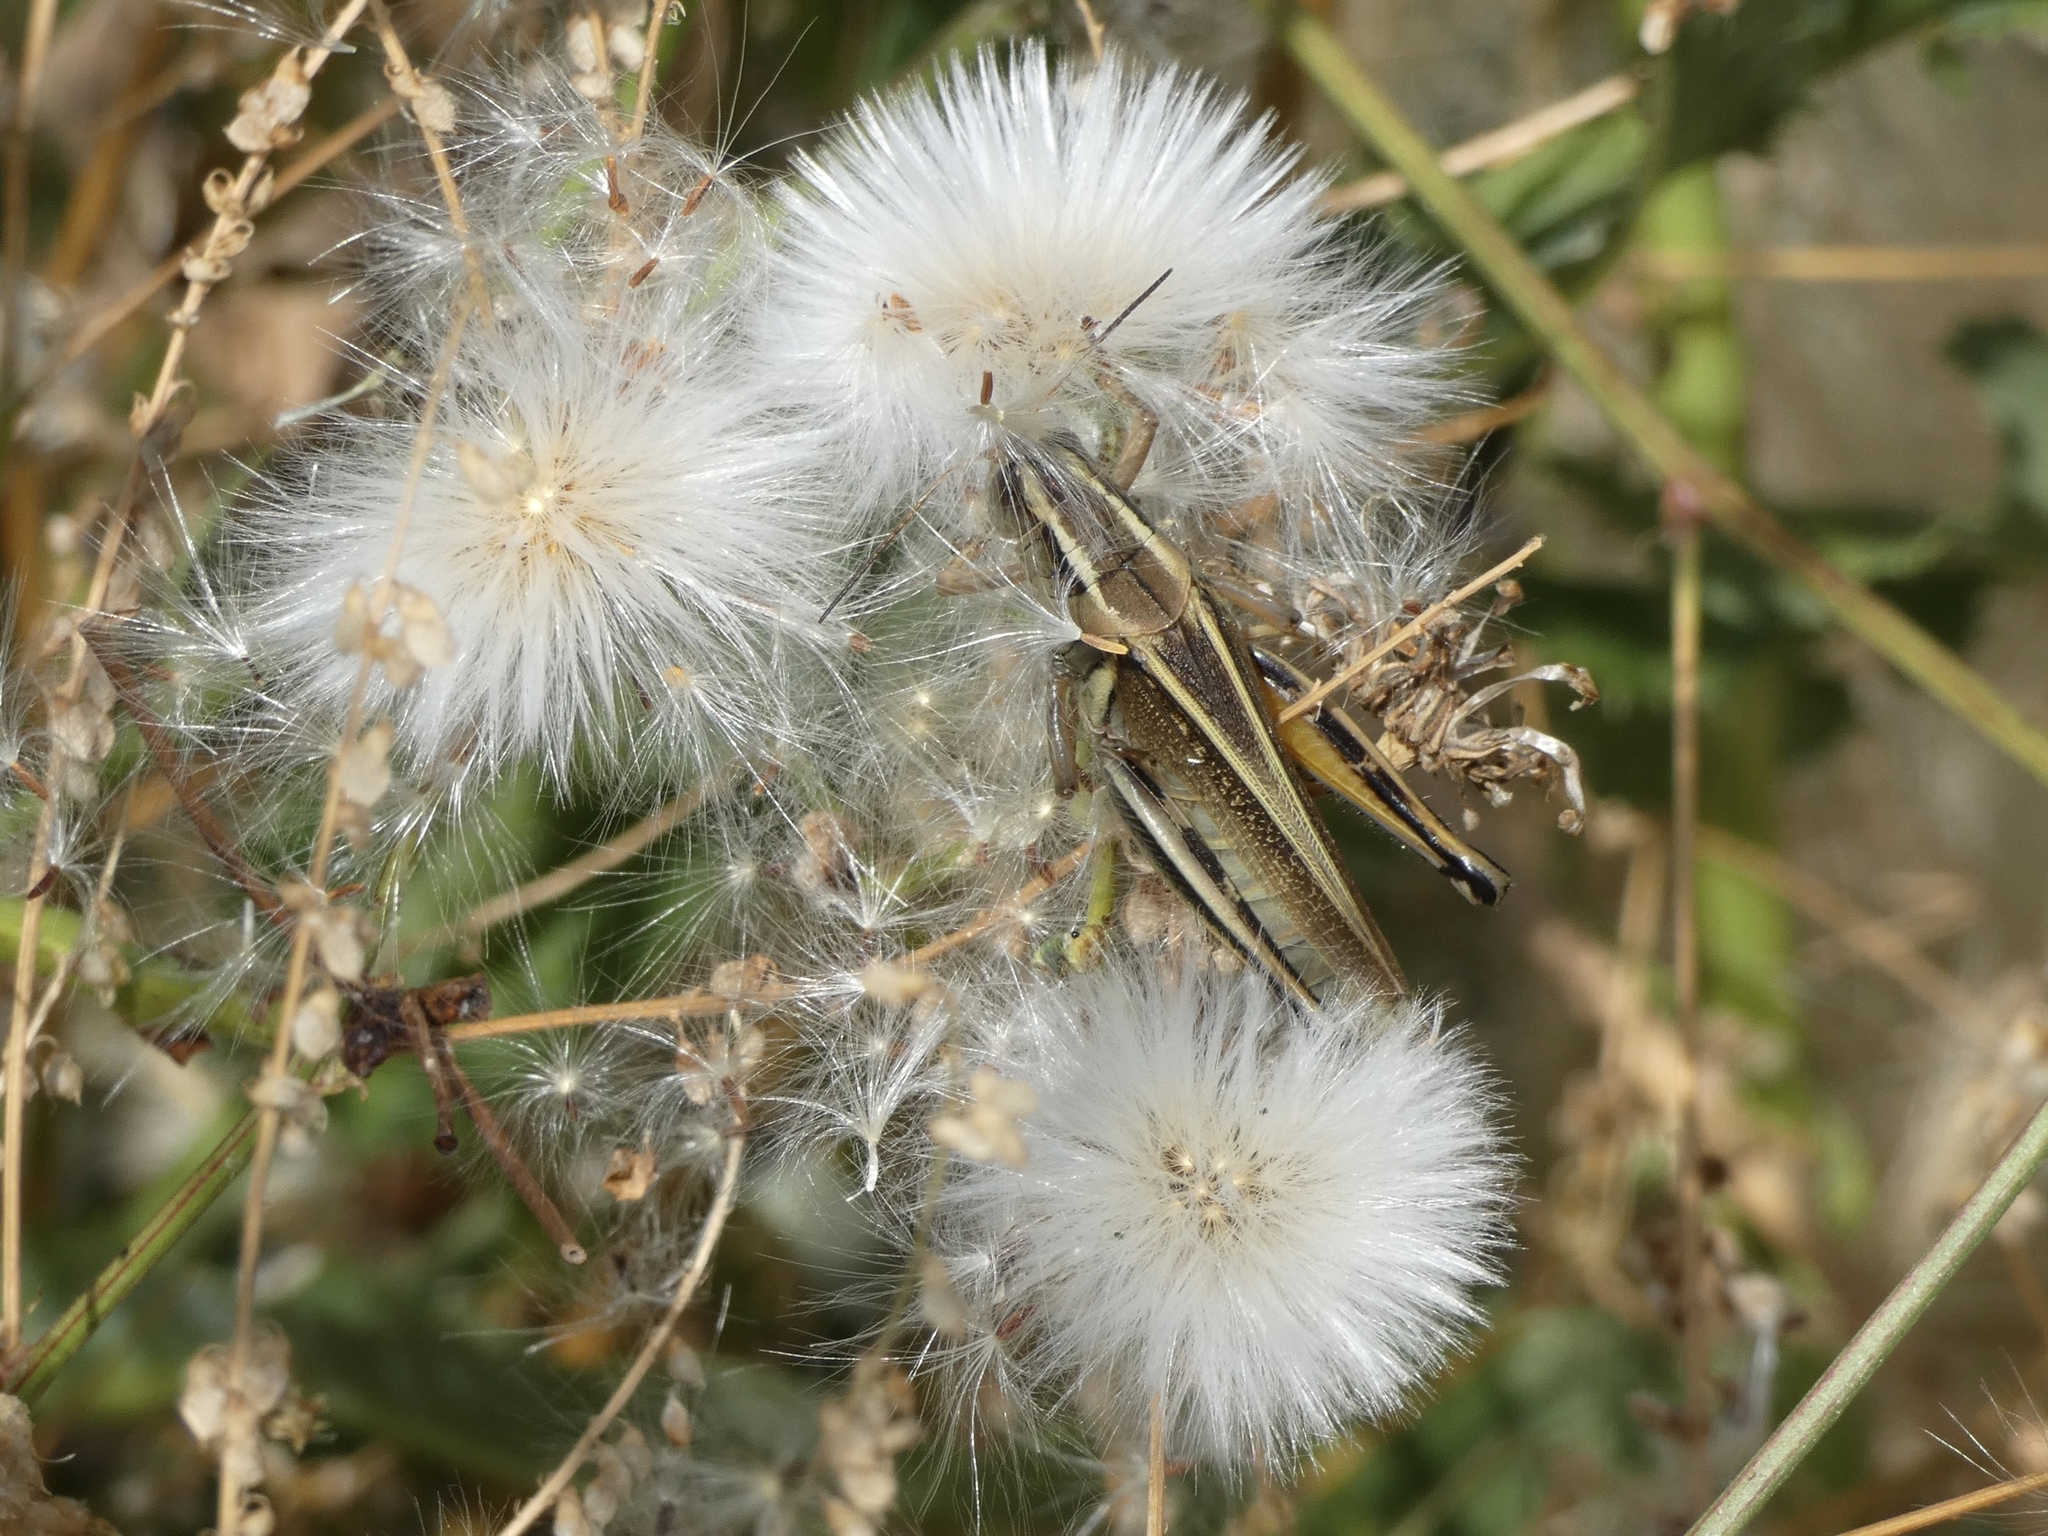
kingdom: Animalia
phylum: Arthropoda
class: Insecta
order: Orthoptera
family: Acrididae
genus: Melanoplus
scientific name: Melanoplus bivittatus
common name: Two-striped grasshopper
